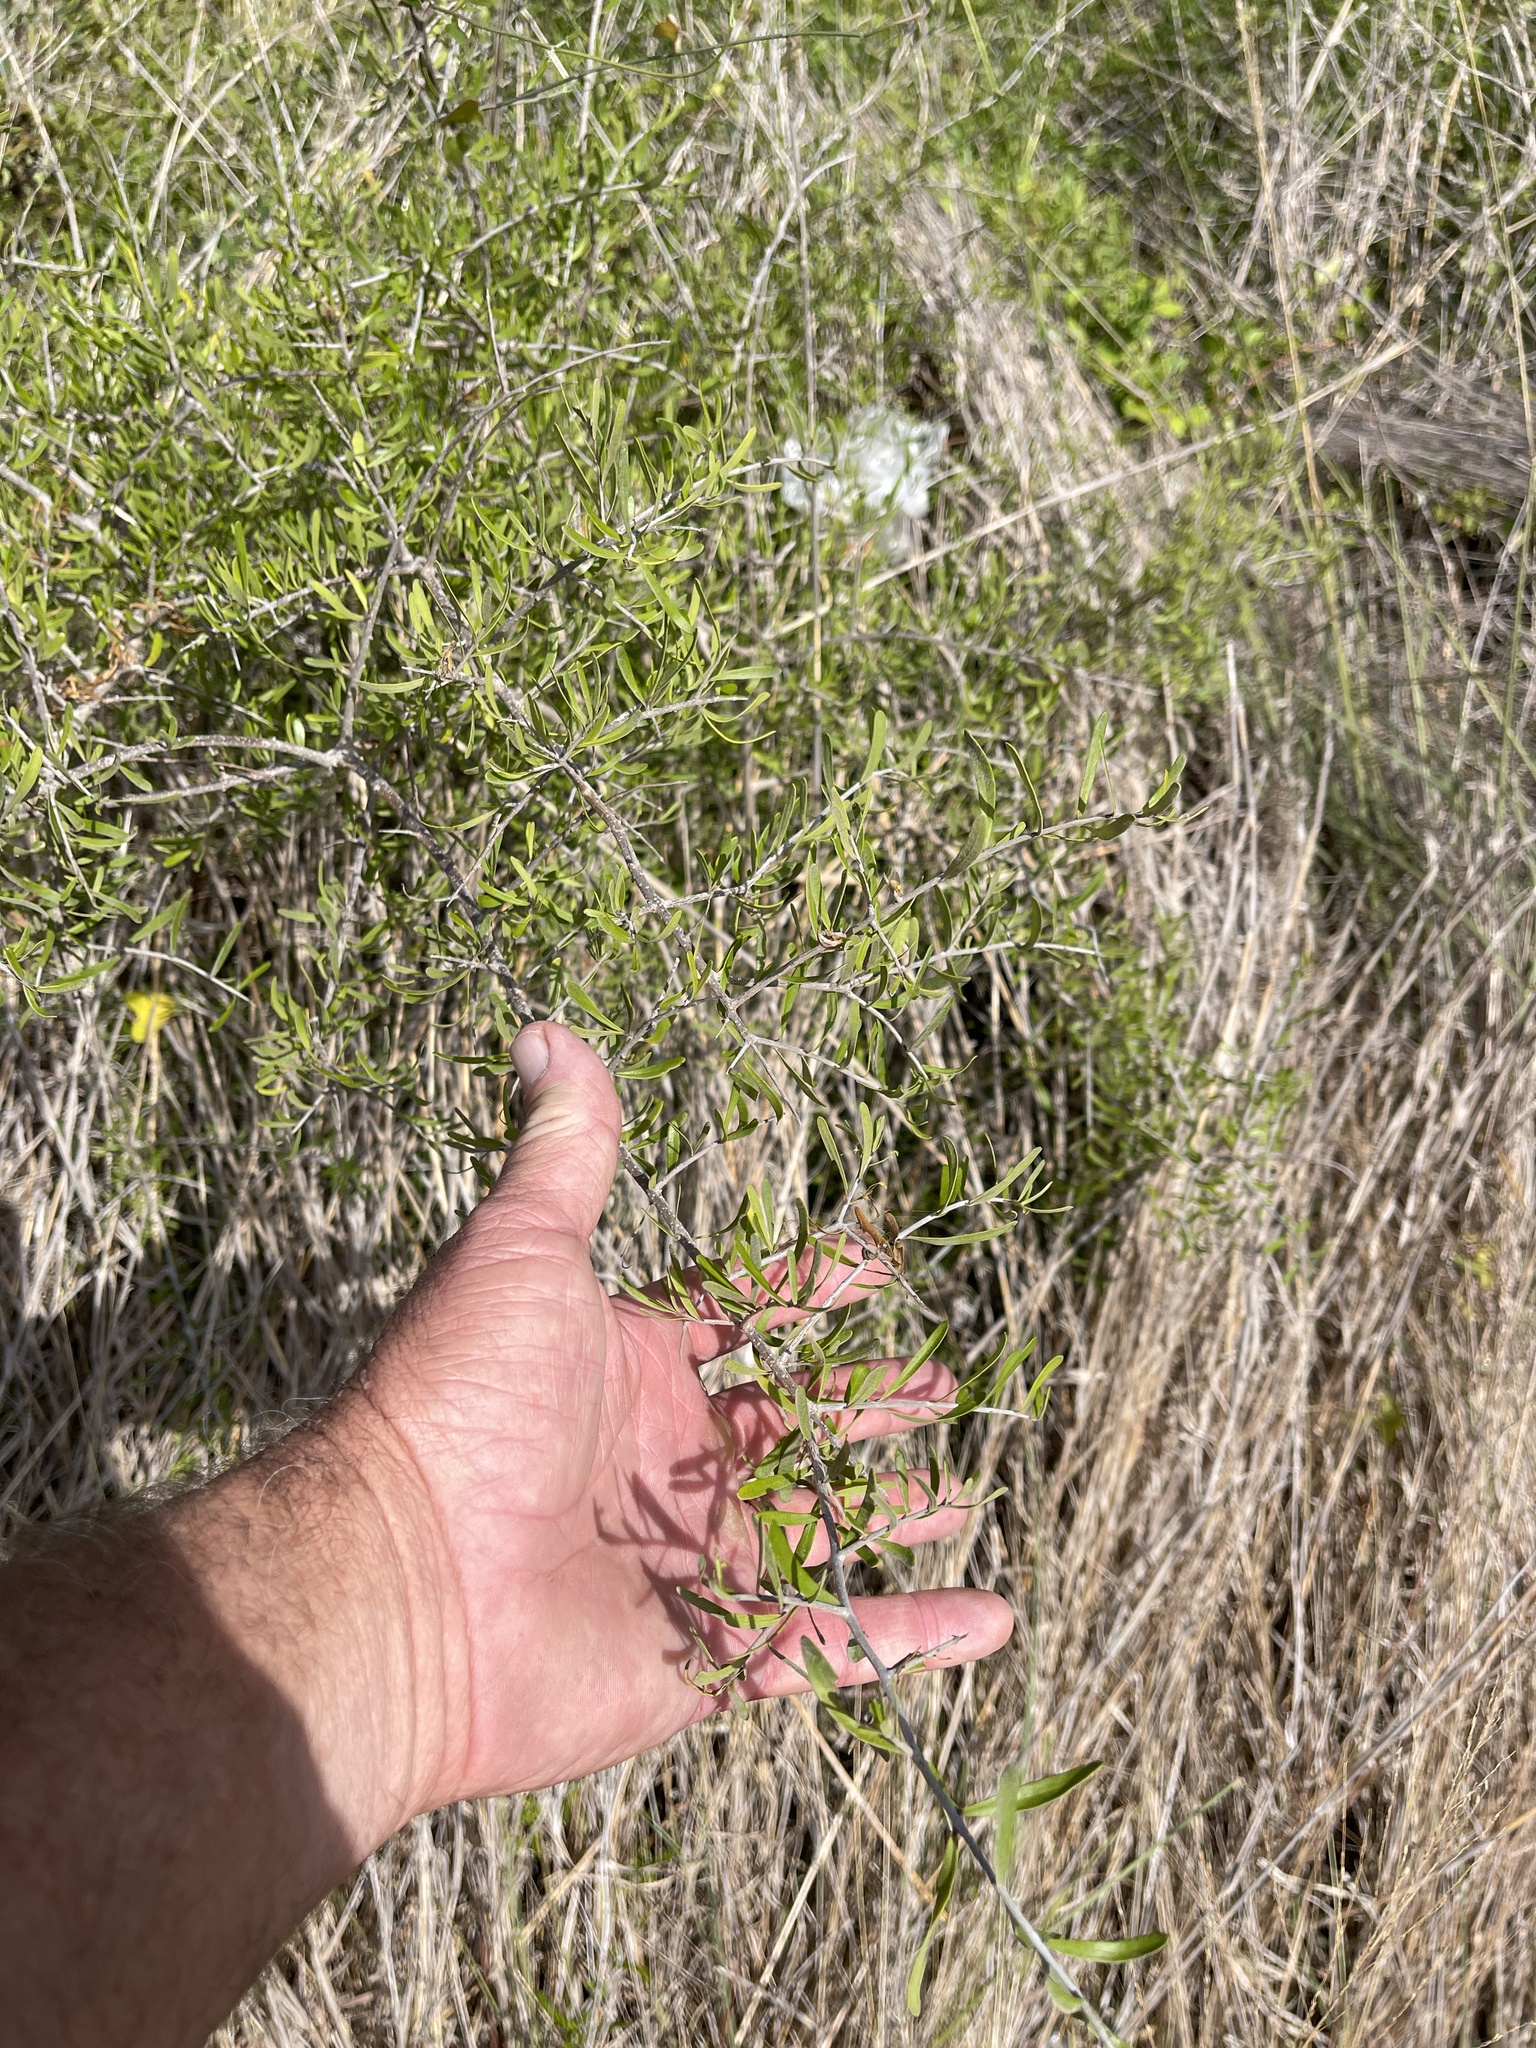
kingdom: Plantae
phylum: Tracheophyta
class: Magnoliopsida
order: Lamiales
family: Oleaceae
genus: Forestiera
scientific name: Forestiera angustifolia
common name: Elbowbush
